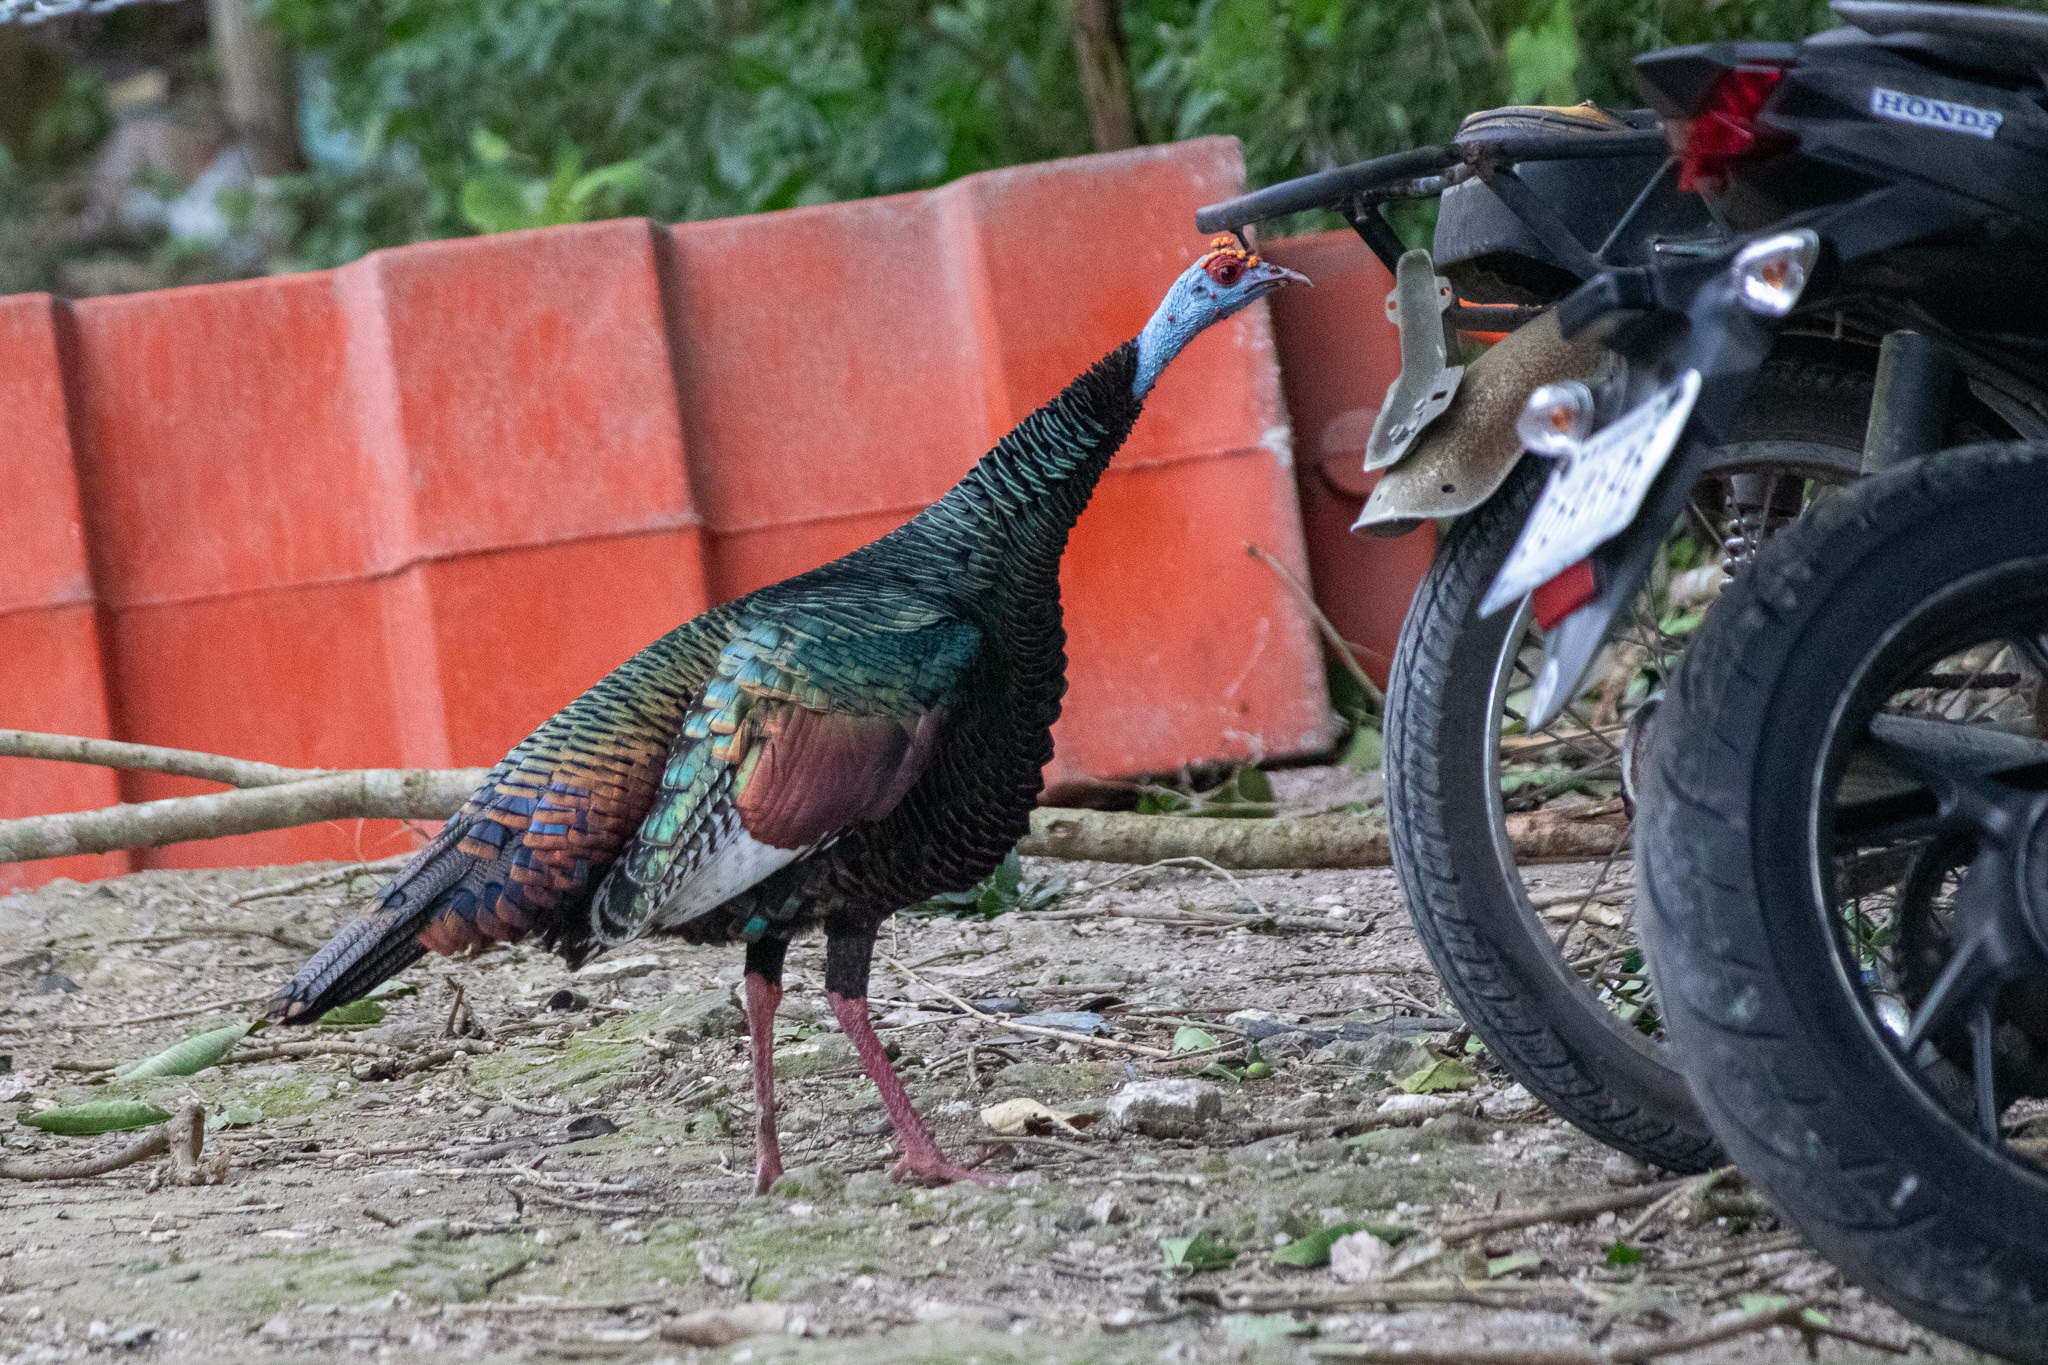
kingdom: Animalia
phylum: Chordata
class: Aves
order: Galliformes
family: Phasianidae
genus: Meleagris
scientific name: Meleagris ocellata
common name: Ocellated turkey
